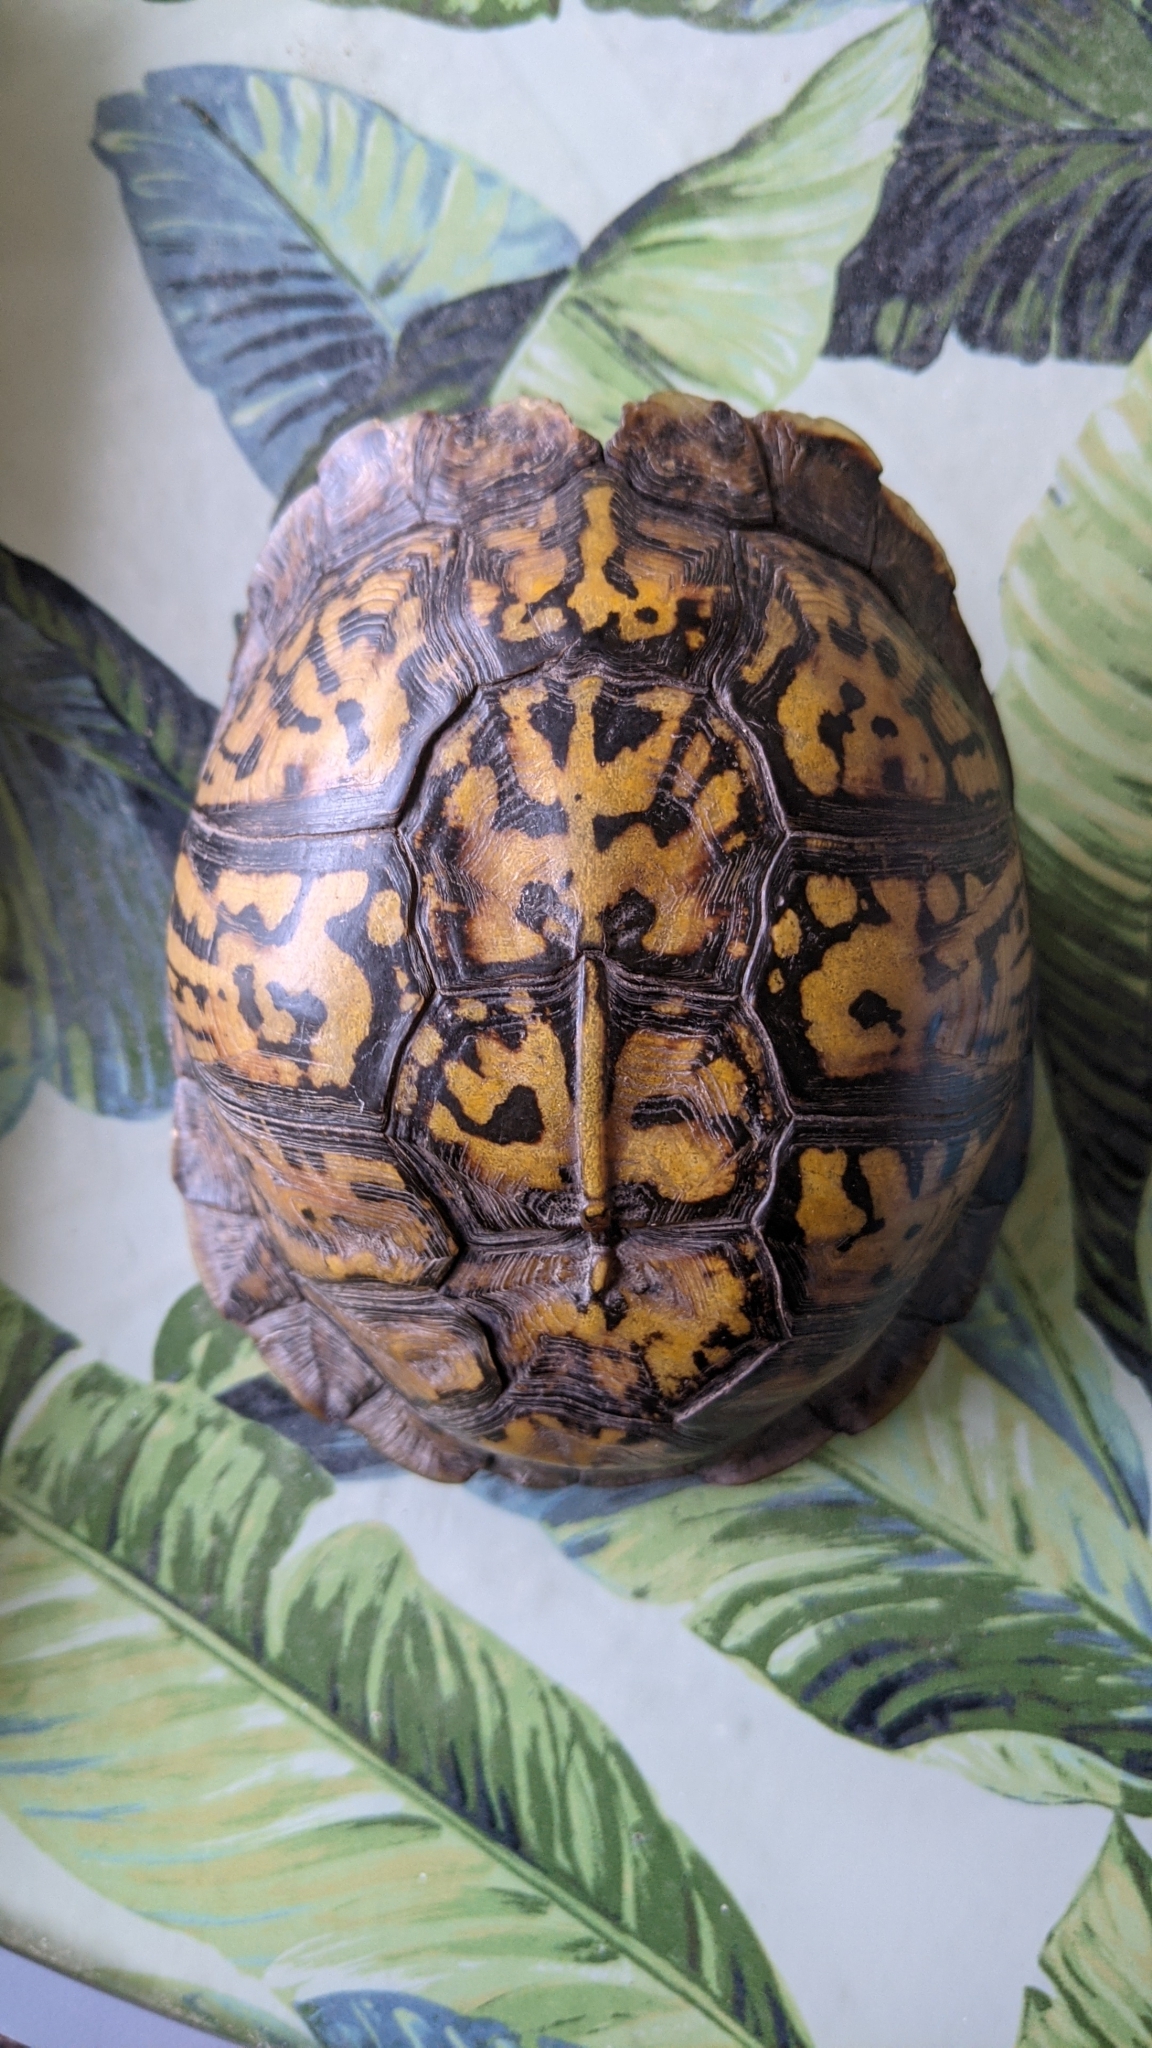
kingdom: Animalia
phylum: Chordata
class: Testudines
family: Emydidae
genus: Terrapene
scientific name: Terrapene carolina
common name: Common box turtle
